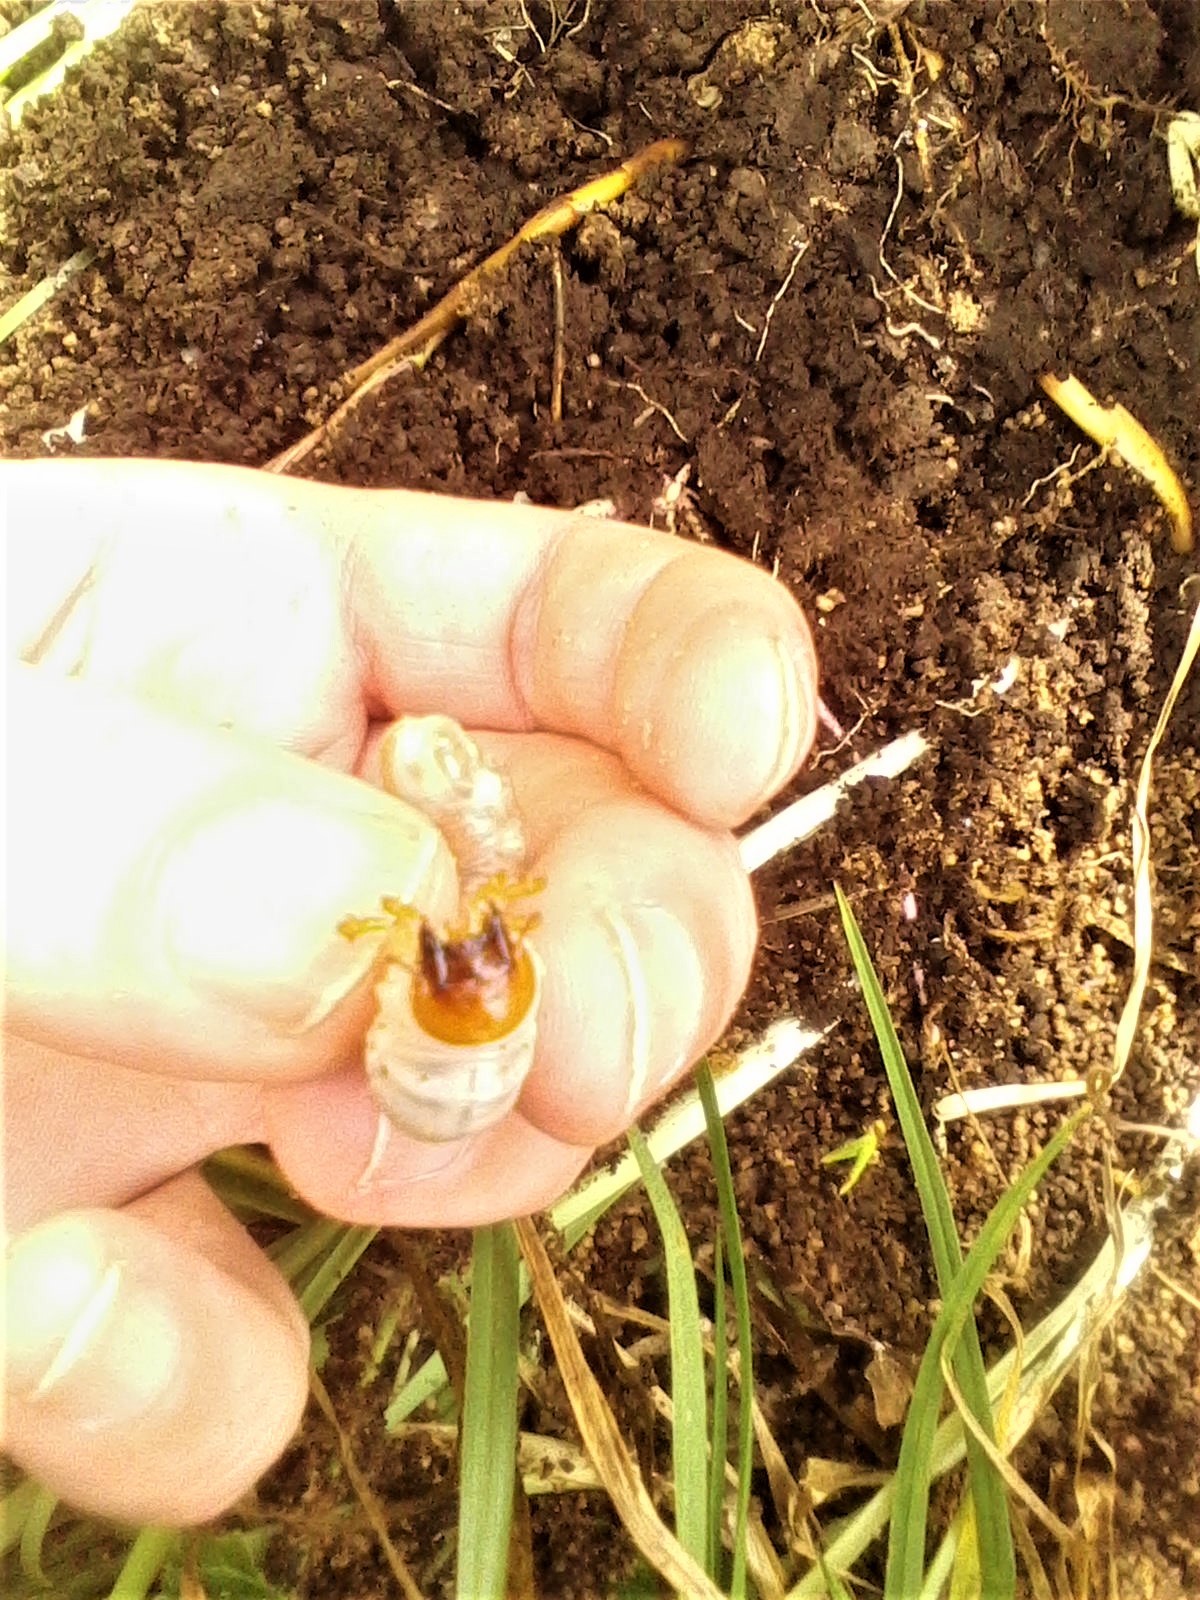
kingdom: Animalia
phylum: Arthropoda
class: Insecta
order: Coleoptera
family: Lucanidae
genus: Ryssonotus
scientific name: Ryssonotus nebulosus
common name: Brown stag beetle
